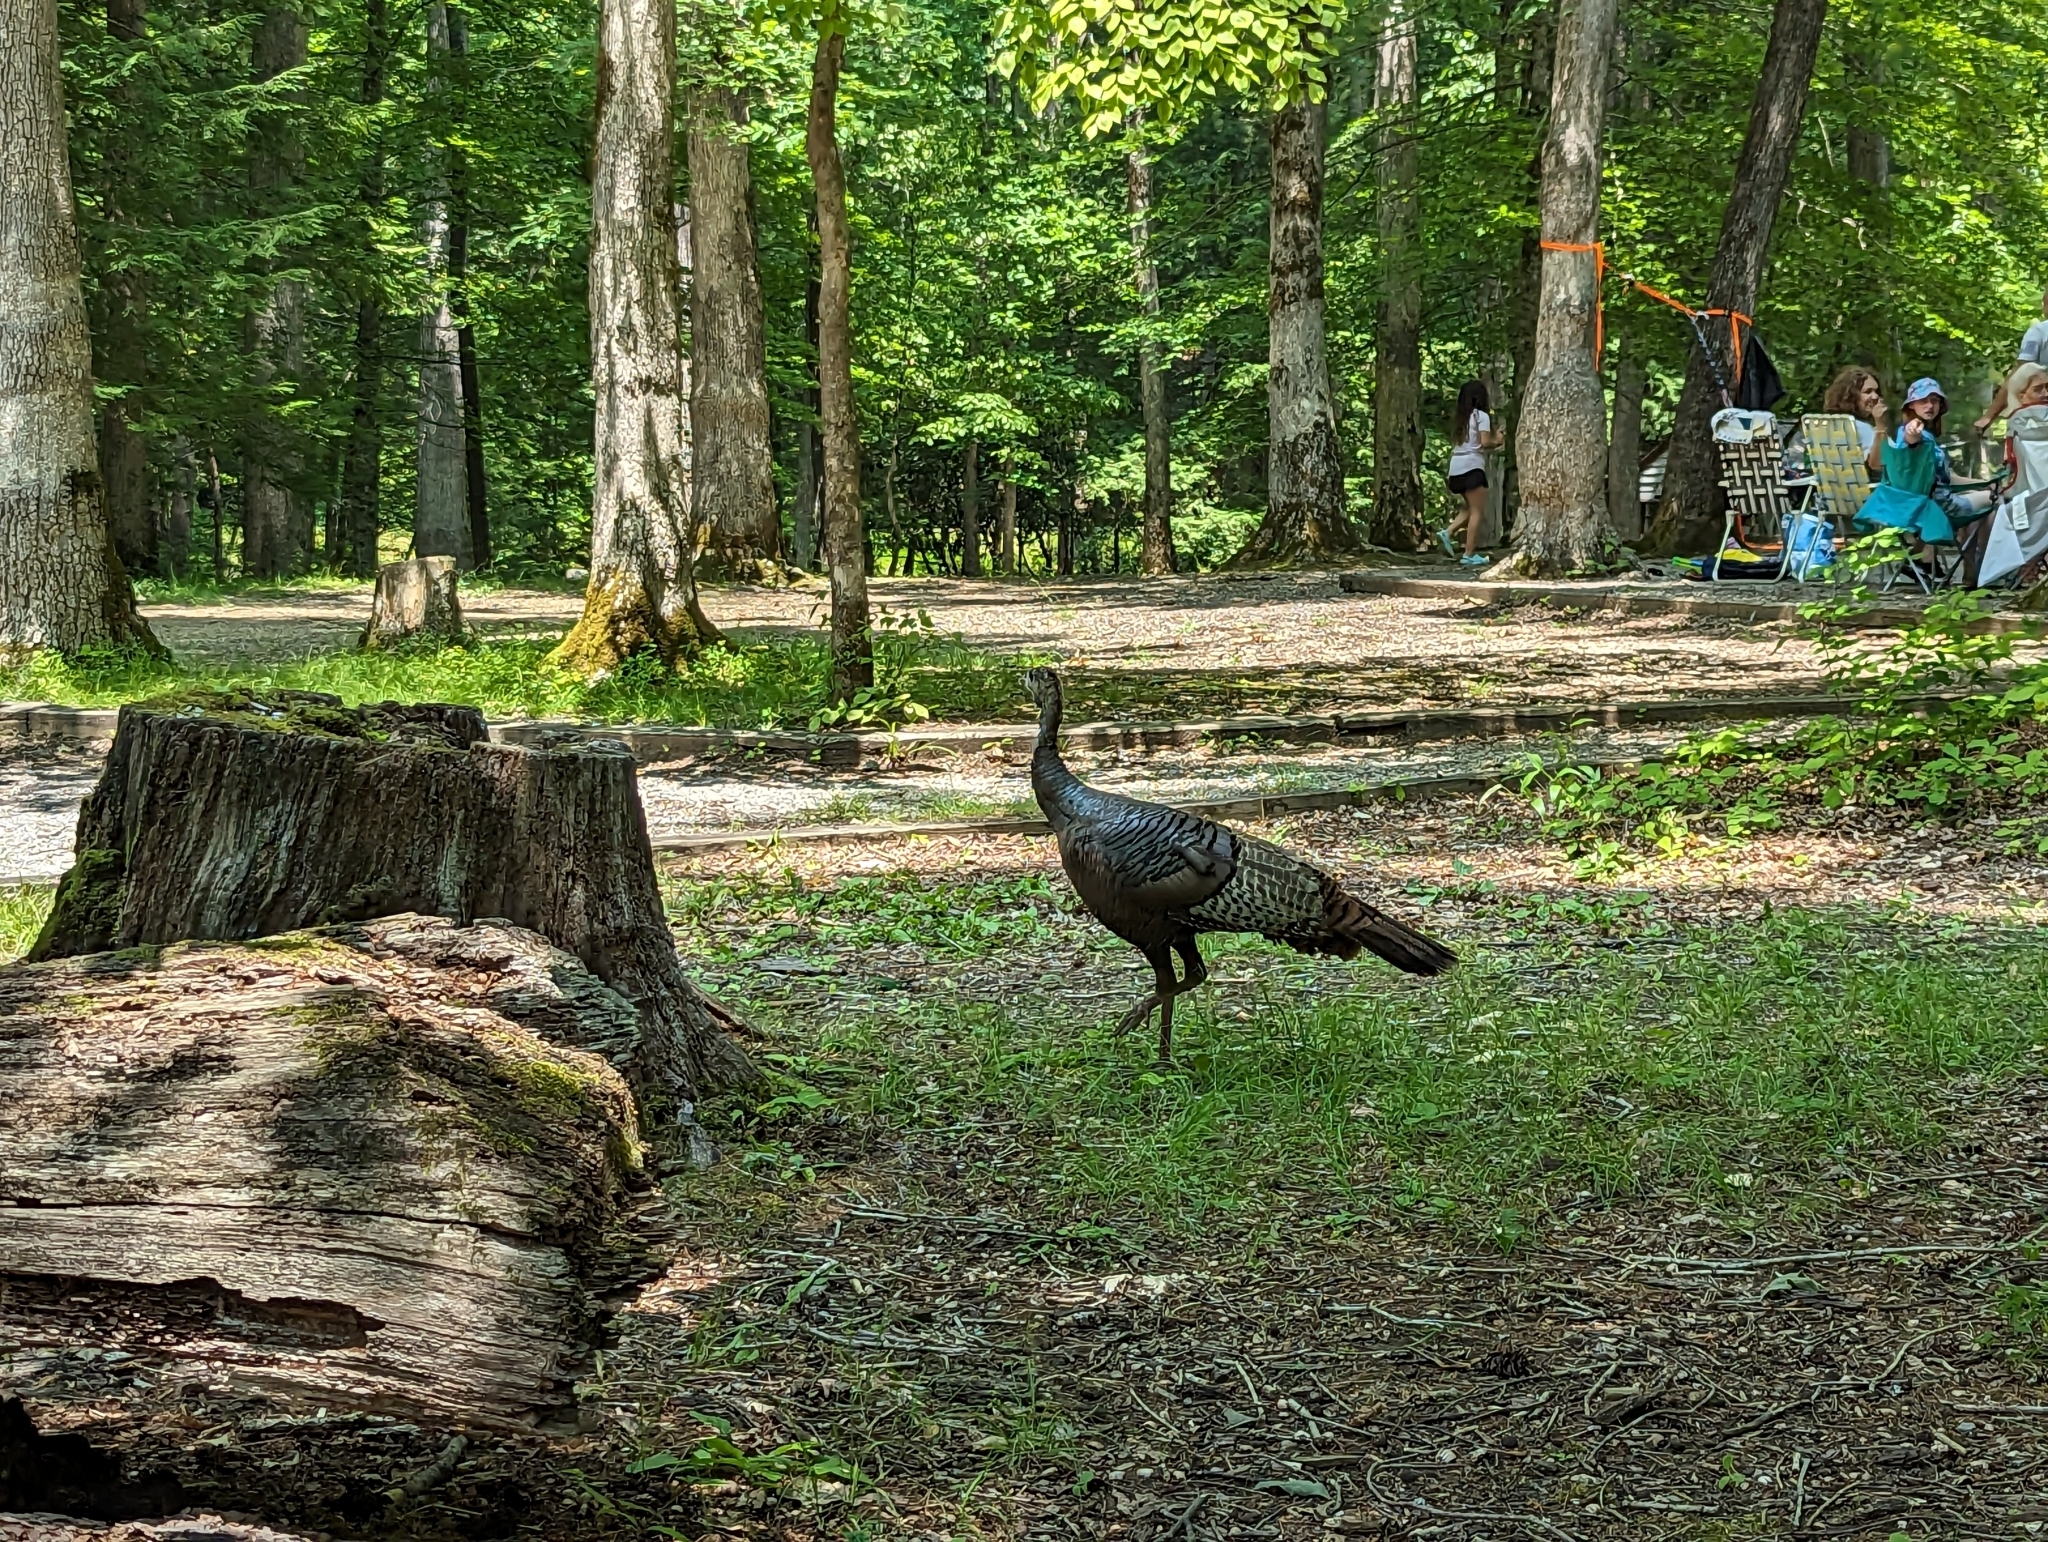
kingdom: Animalia
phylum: Chordata
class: Aves
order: Galliformes
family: Phasianidae
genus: Meleagris
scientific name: Meleagris gallopavo
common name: Wild turkey
